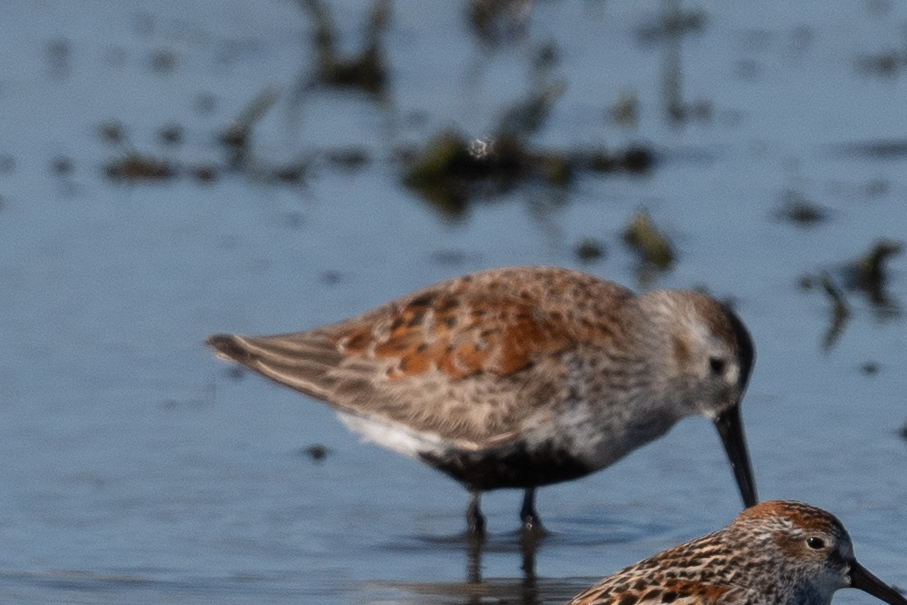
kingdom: Animalia
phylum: Chordata
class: Aves
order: Charadriiformes
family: Scolopacidae
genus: Calidris
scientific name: Calidris alpina
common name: Dunlin
